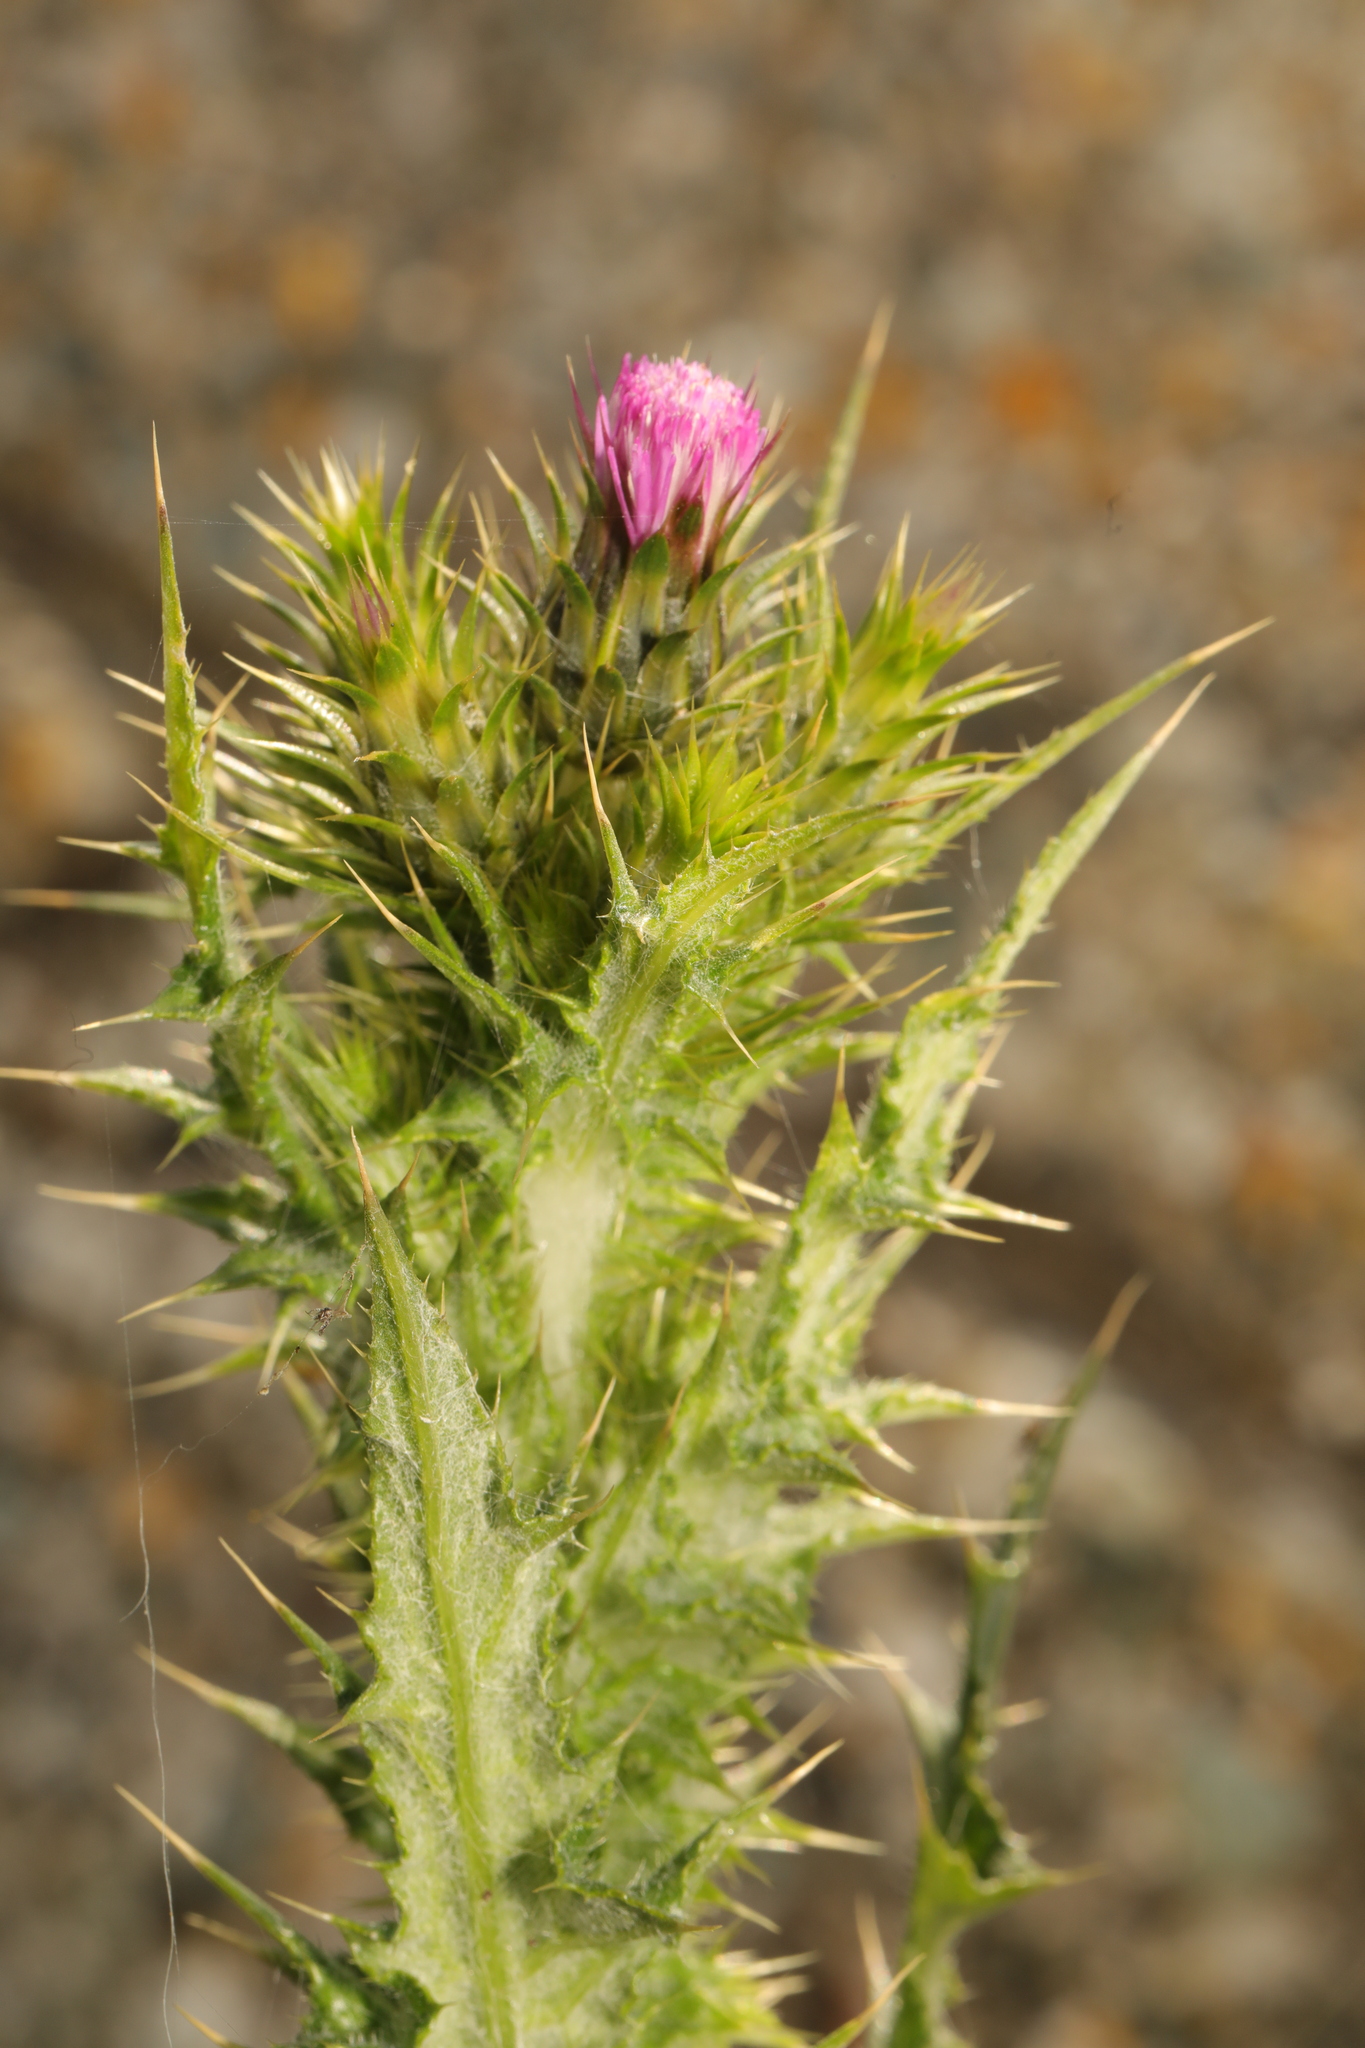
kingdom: Plantae
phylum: Tracheophyta
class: Magnoliopsida
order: Asterales
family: Asteraceae
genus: Carduus
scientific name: Carduus tenuiflorus
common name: Slender thistle
